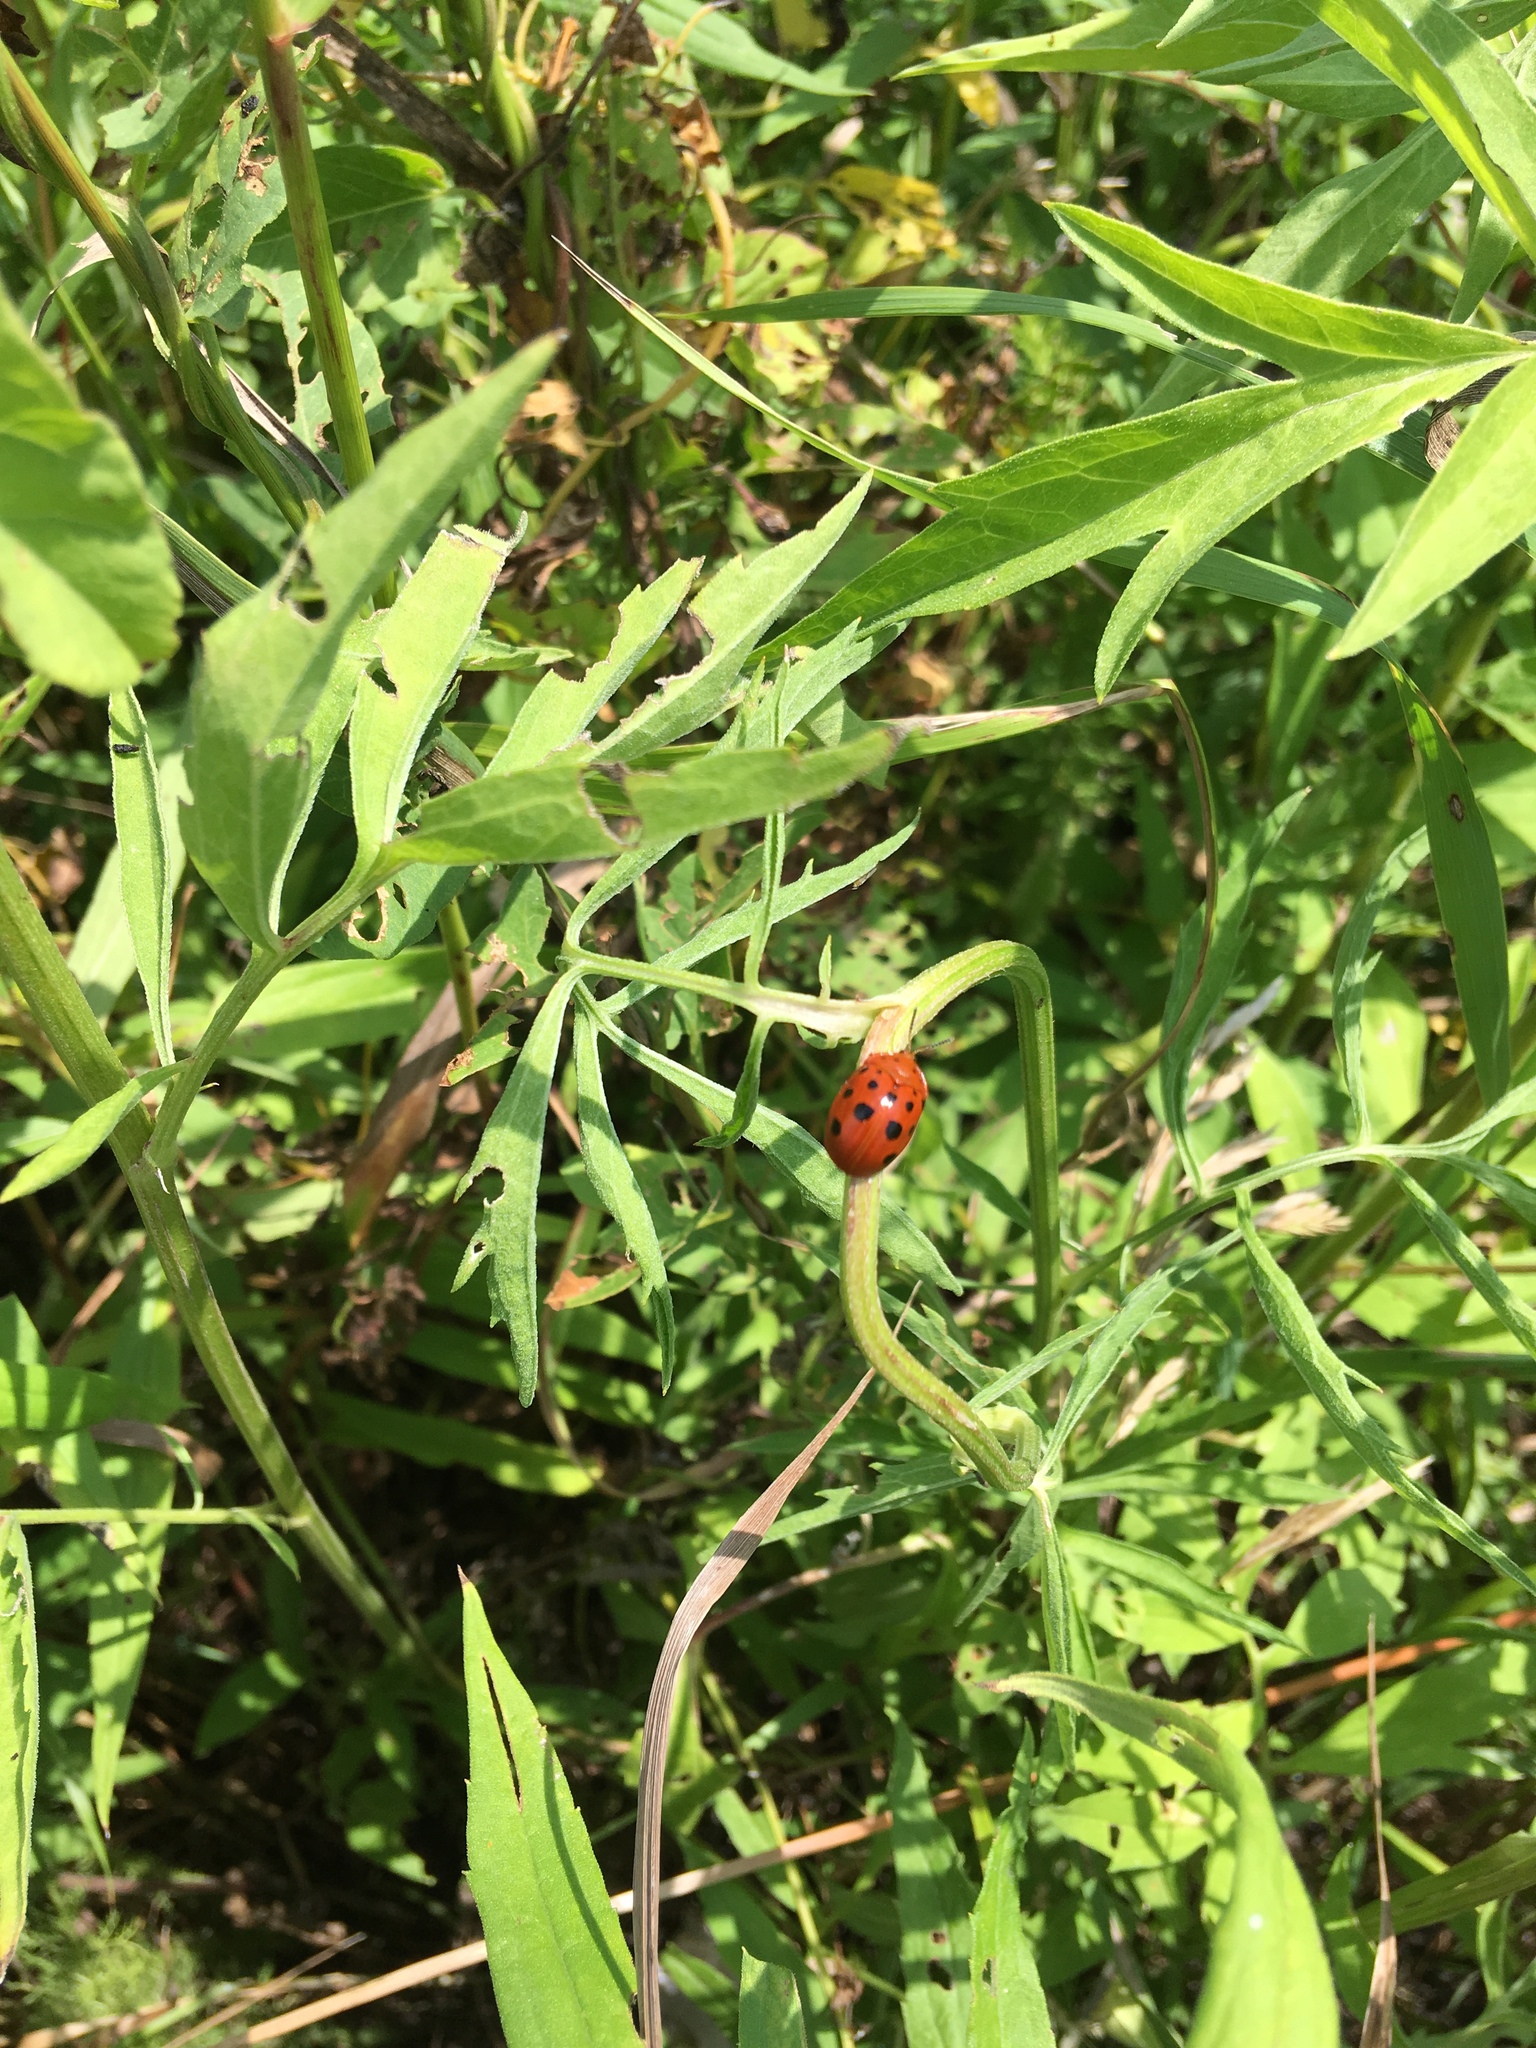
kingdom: Animalia
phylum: Arthropoda
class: Insecta
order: Coleoptera
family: Chrysomelidae
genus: Chelymorpha
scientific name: Chelymorpha cassidea
